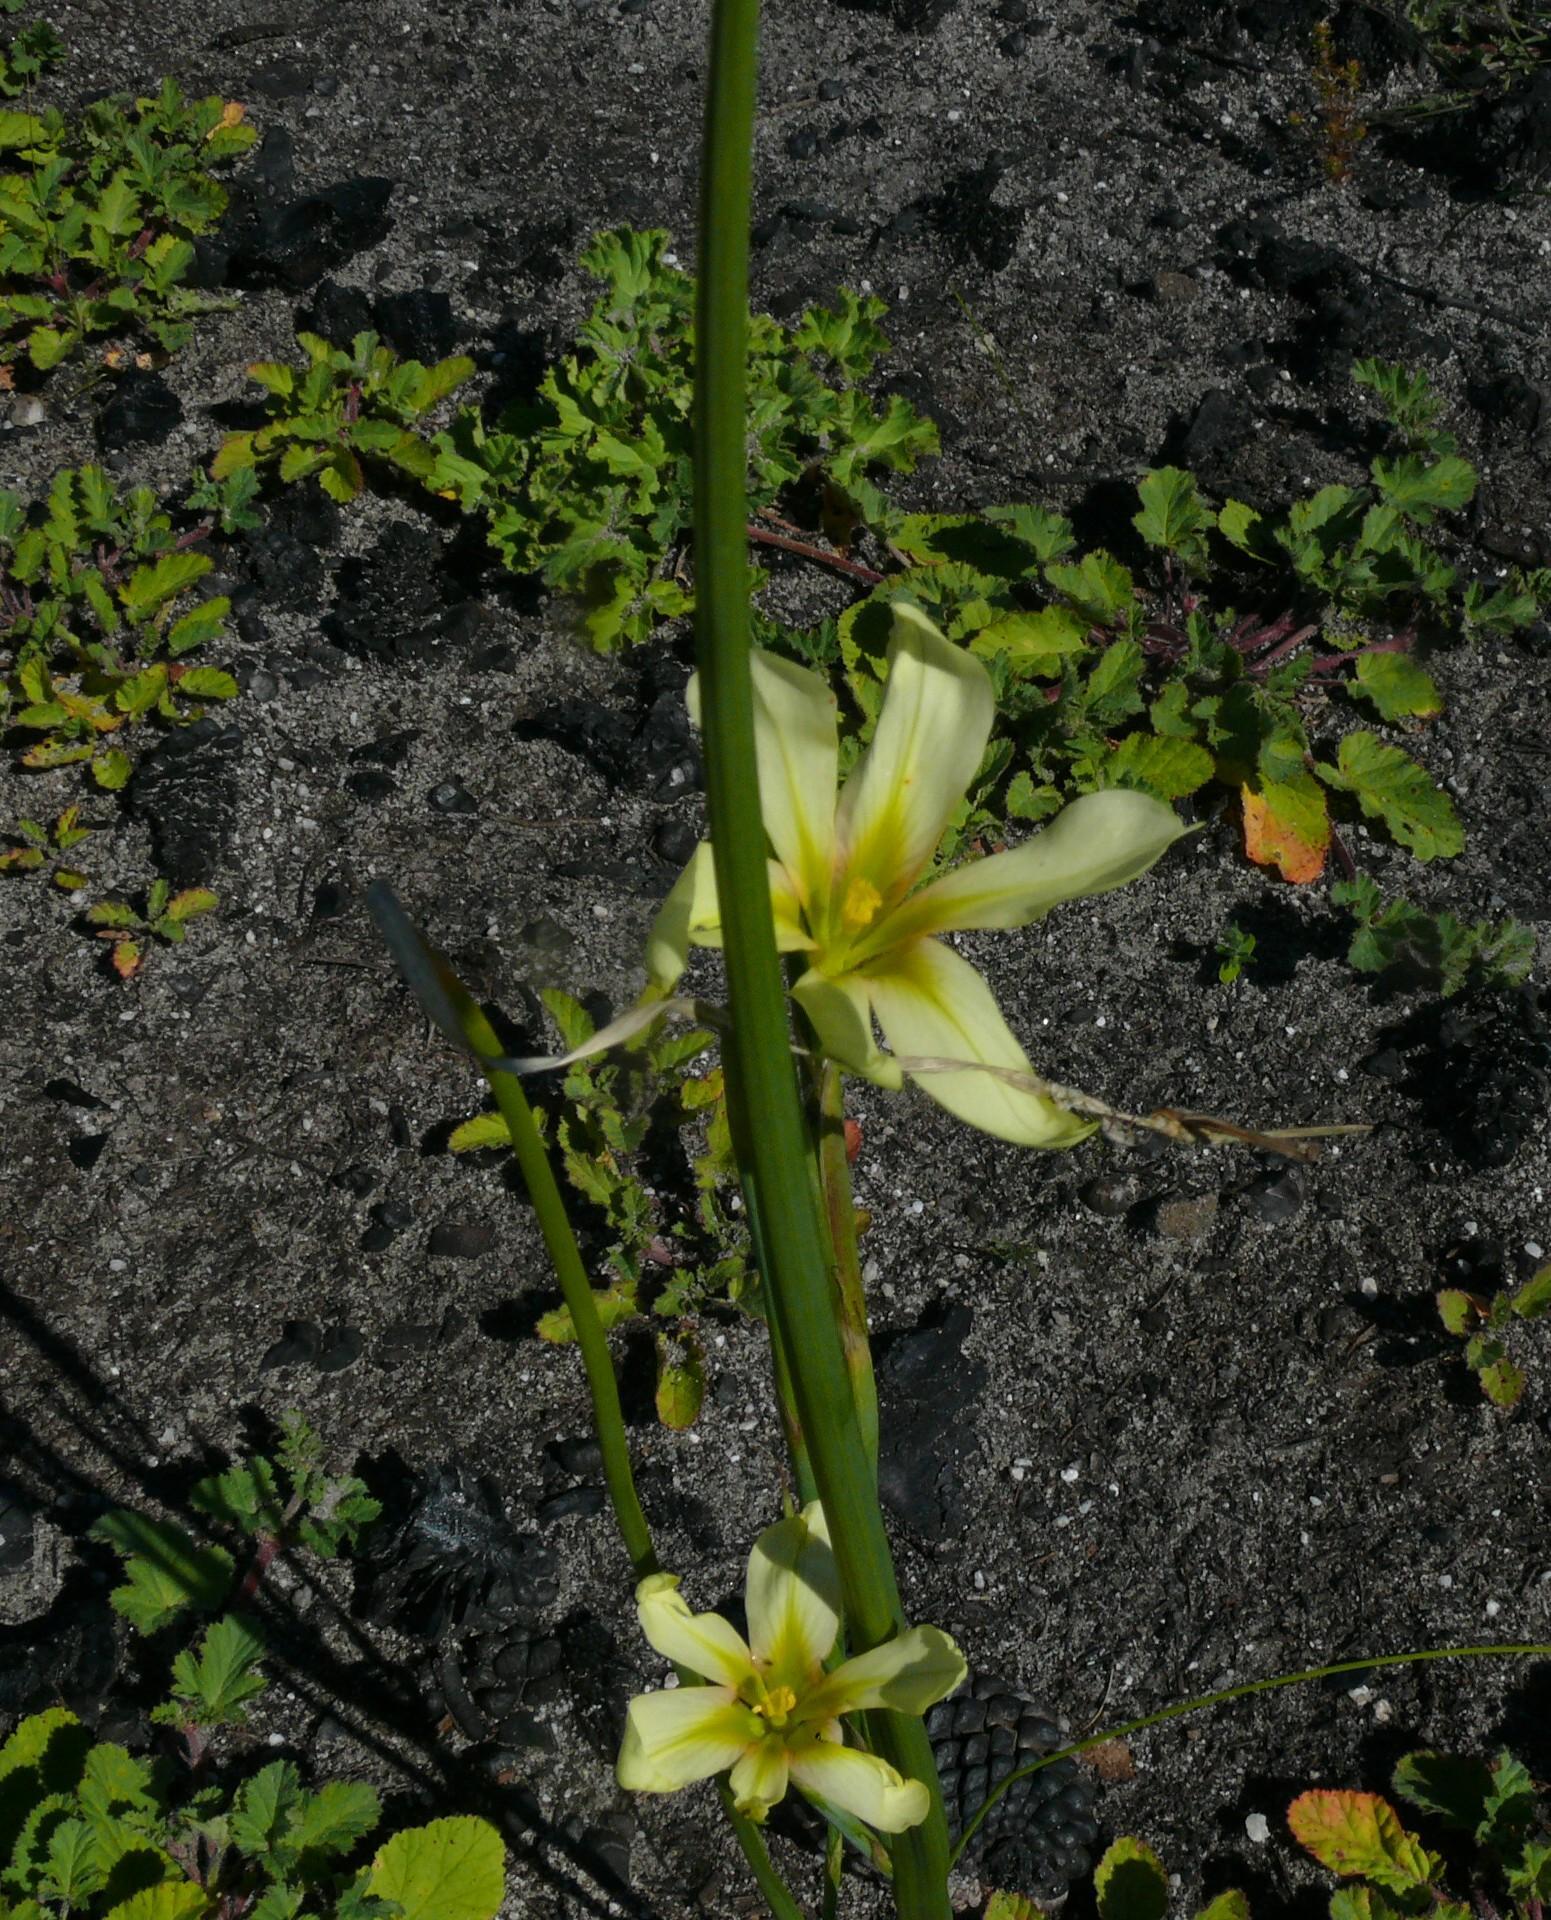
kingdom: Plantae
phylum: Tracheophyta
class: Liliopsida
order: Asparagales
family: Iridaceae
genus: Moraea
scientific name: Moraea ochroleuca
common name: Red tulp
